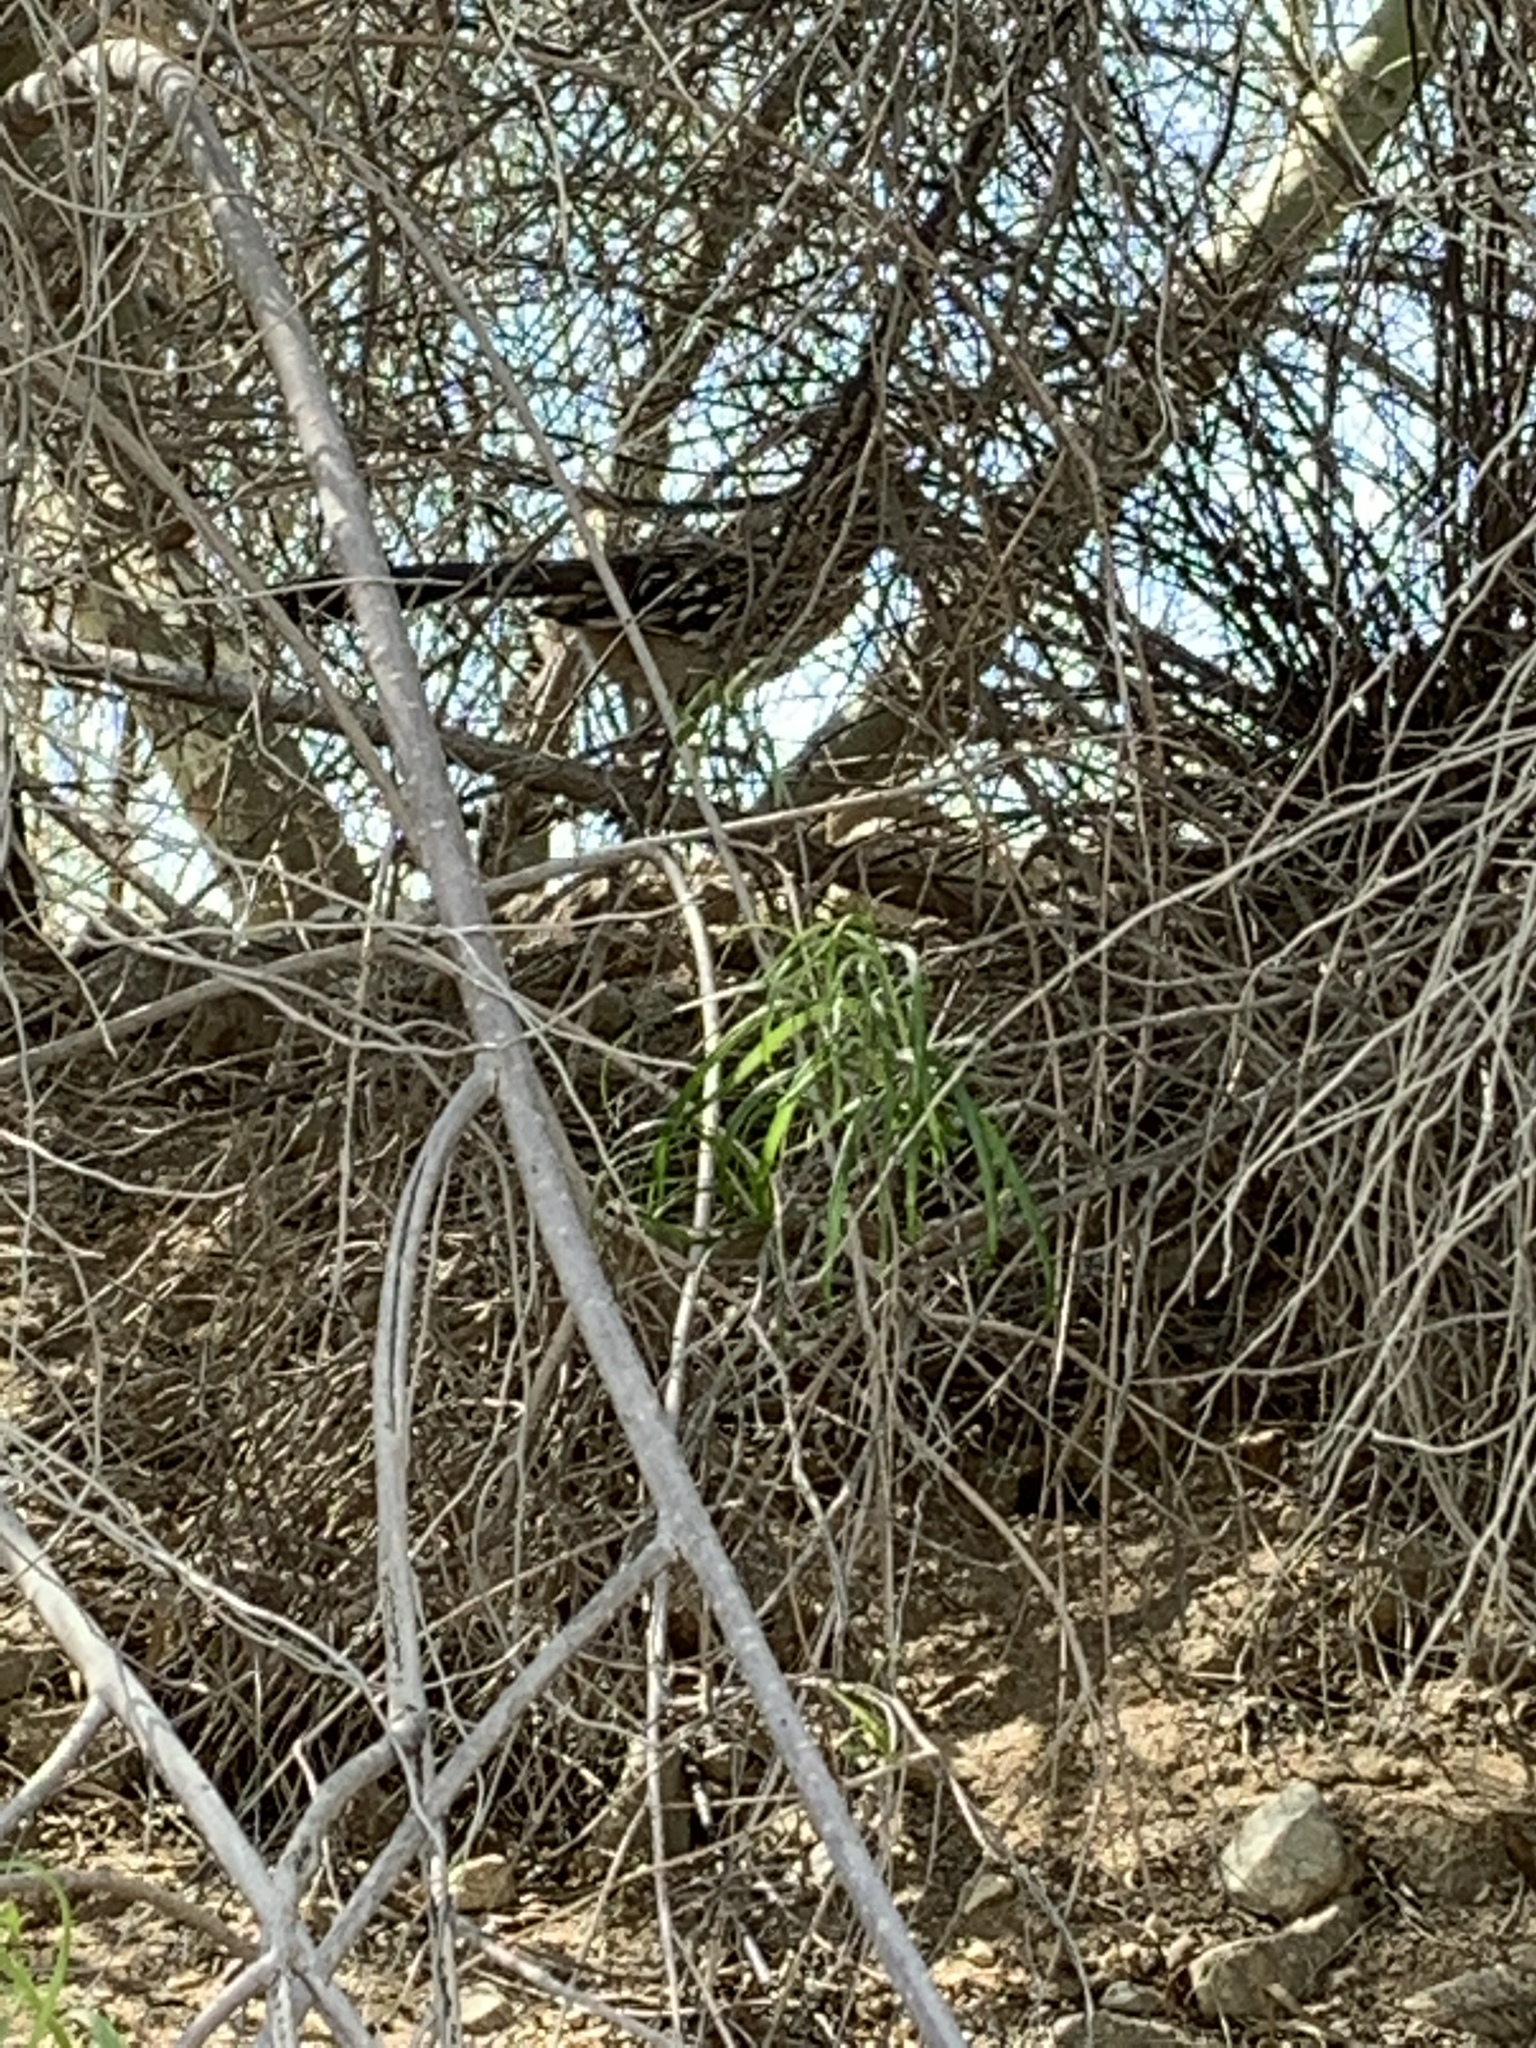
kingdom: Animalia
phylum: Chordata
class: Aves
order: Cuculiformes
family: Cuculidae
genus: Geococcyx
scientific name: Geococcyx californianus
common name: Greater roadrunner
